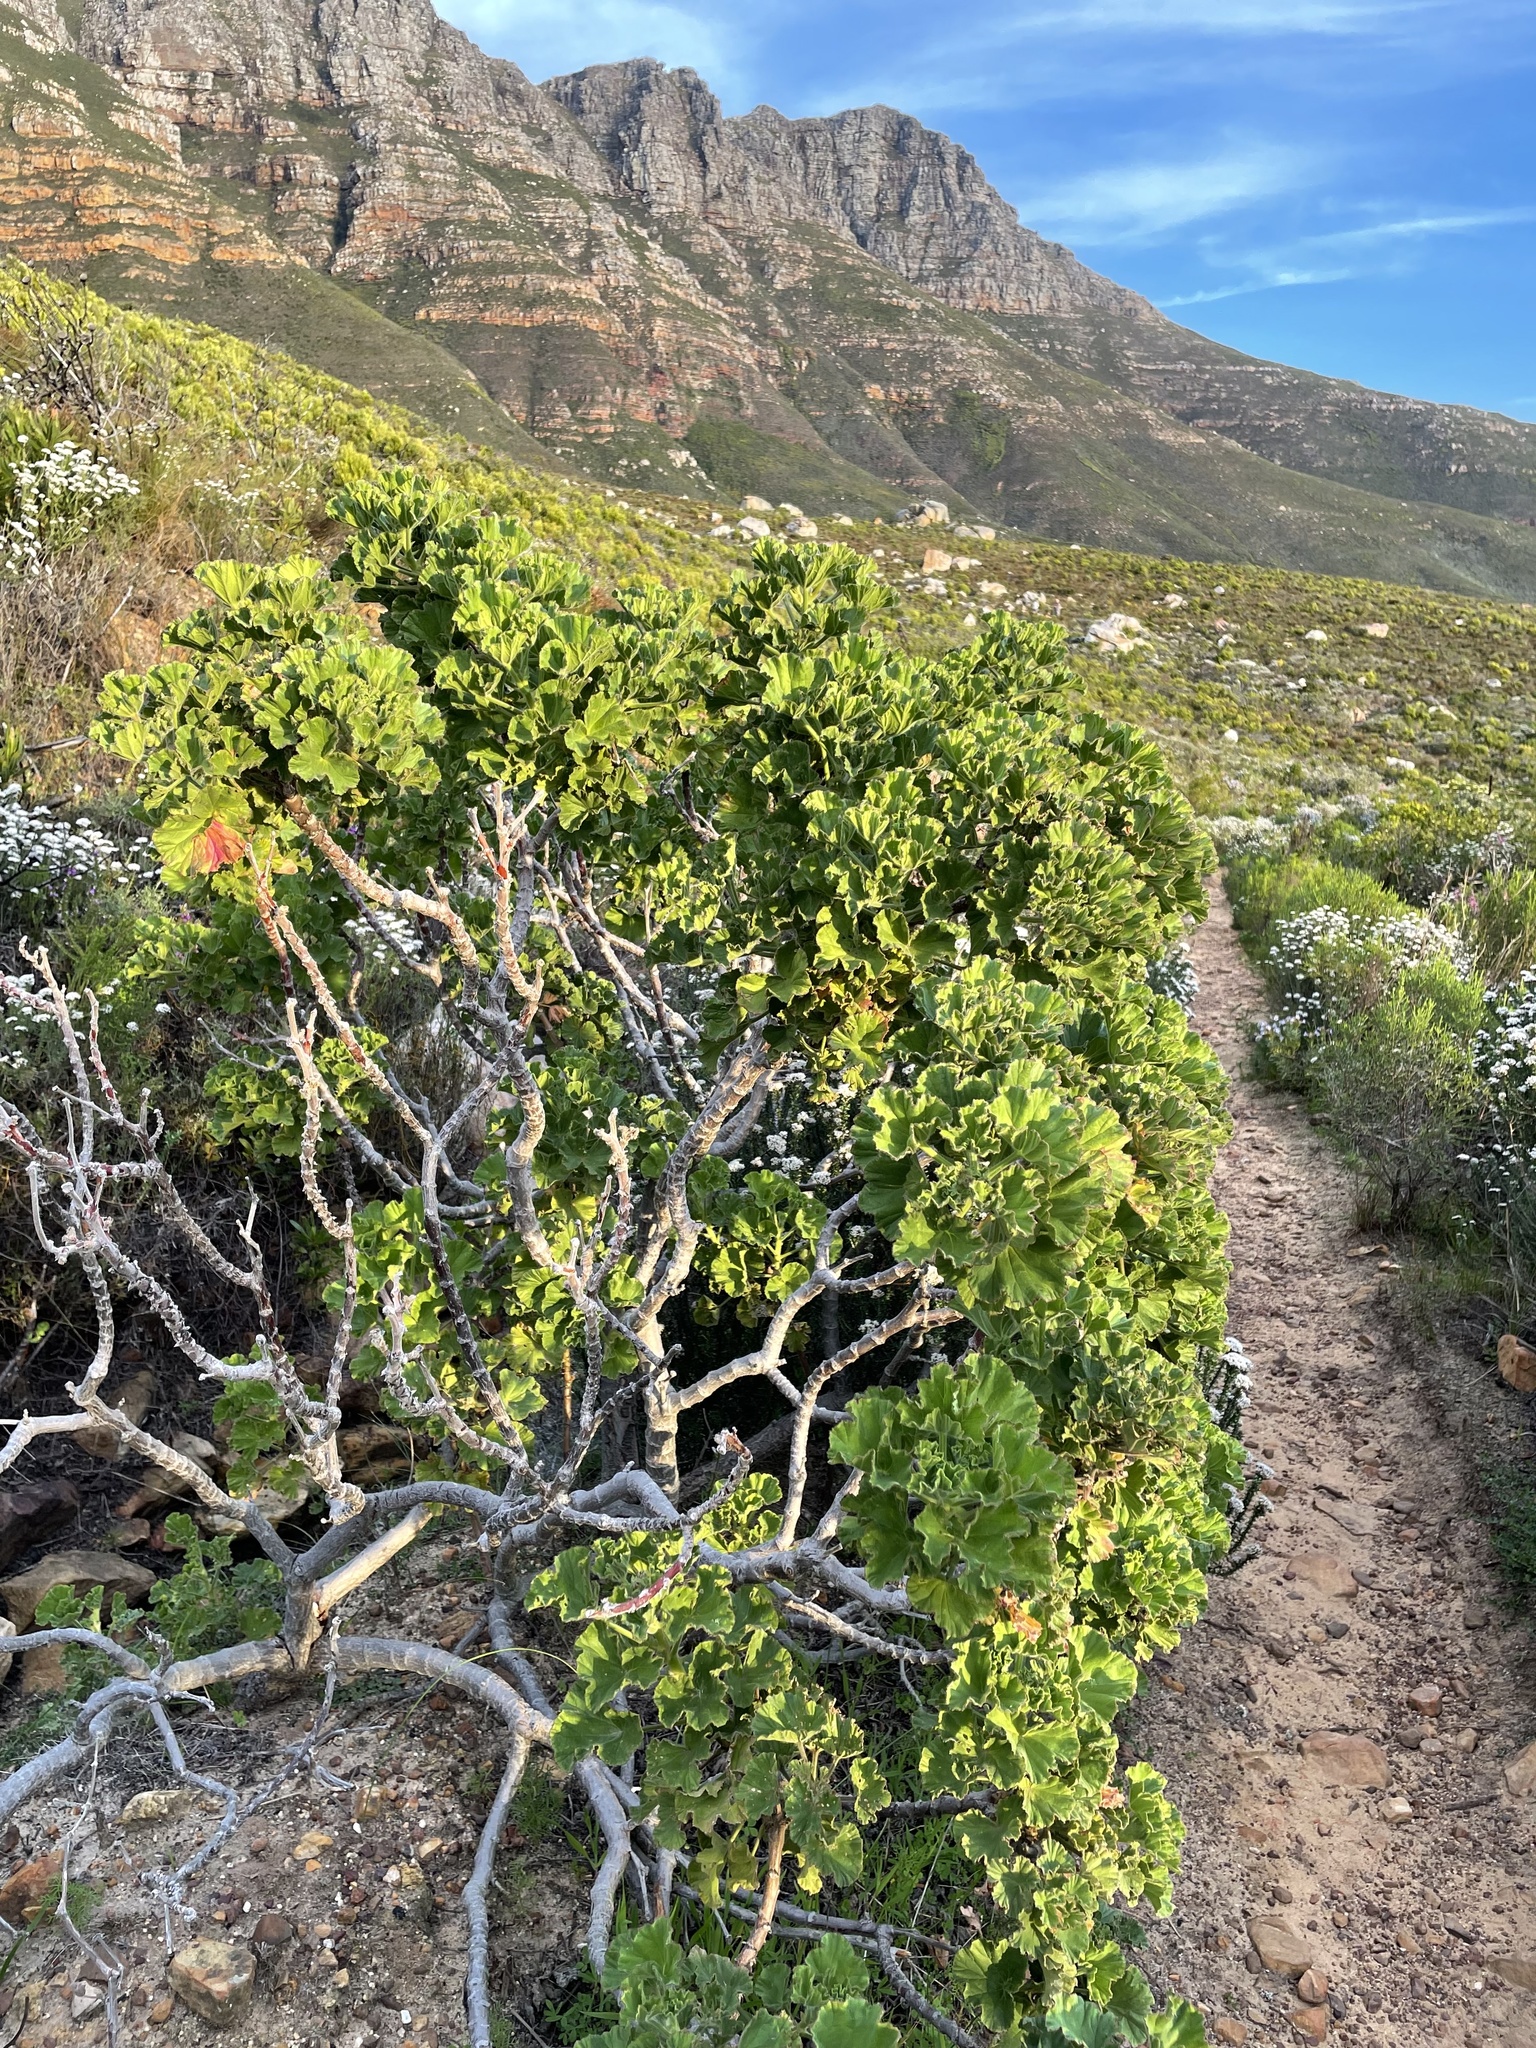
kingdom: Plantae
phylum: Tracheophyta
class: Magnoliopsida
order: Geraniales
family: Geraniaceae
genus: Pelargonium
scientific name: Pelargonium cucullatum
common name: Tree pelargonium
